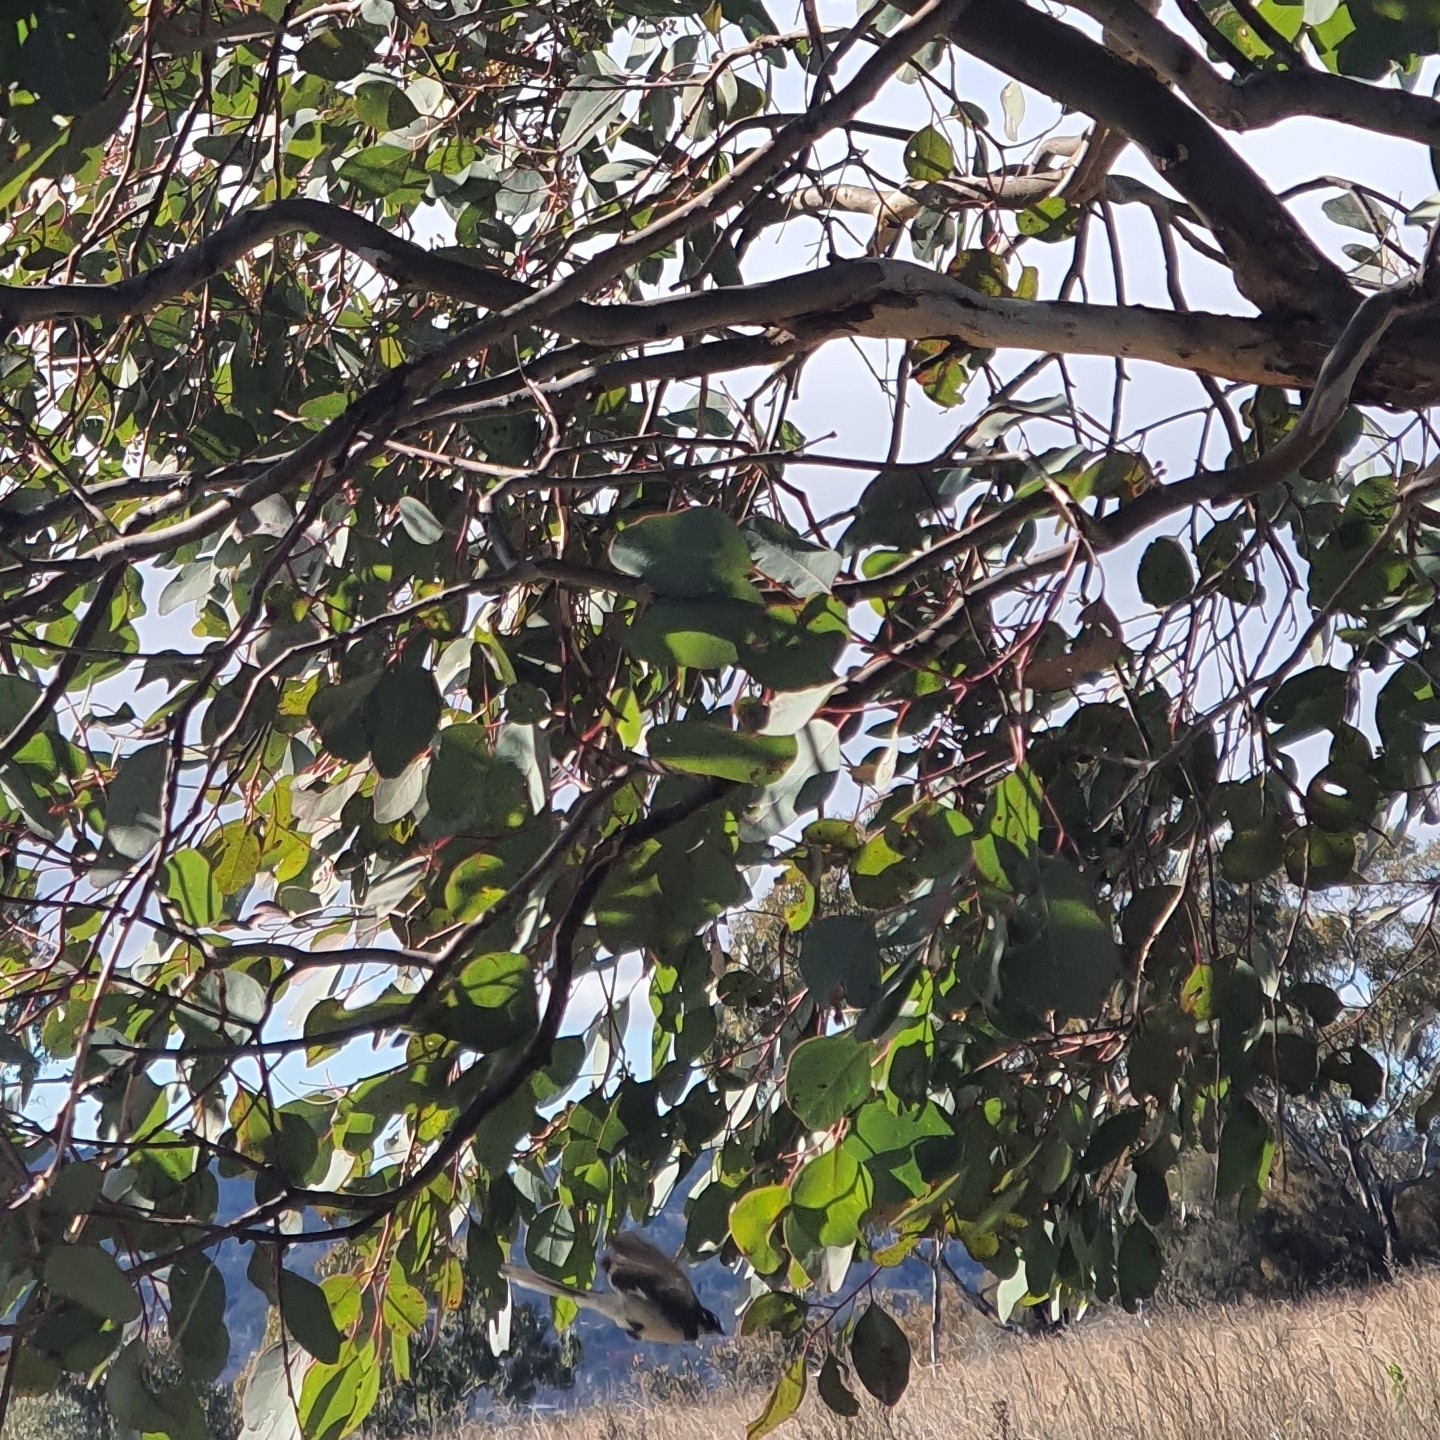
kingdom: Animalia
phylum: Chordata
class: Aves
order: Passeriformes
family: Rhipiduridae
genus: Rhipidura
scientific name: Rhipidura albiscapa
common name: Grey fantail
